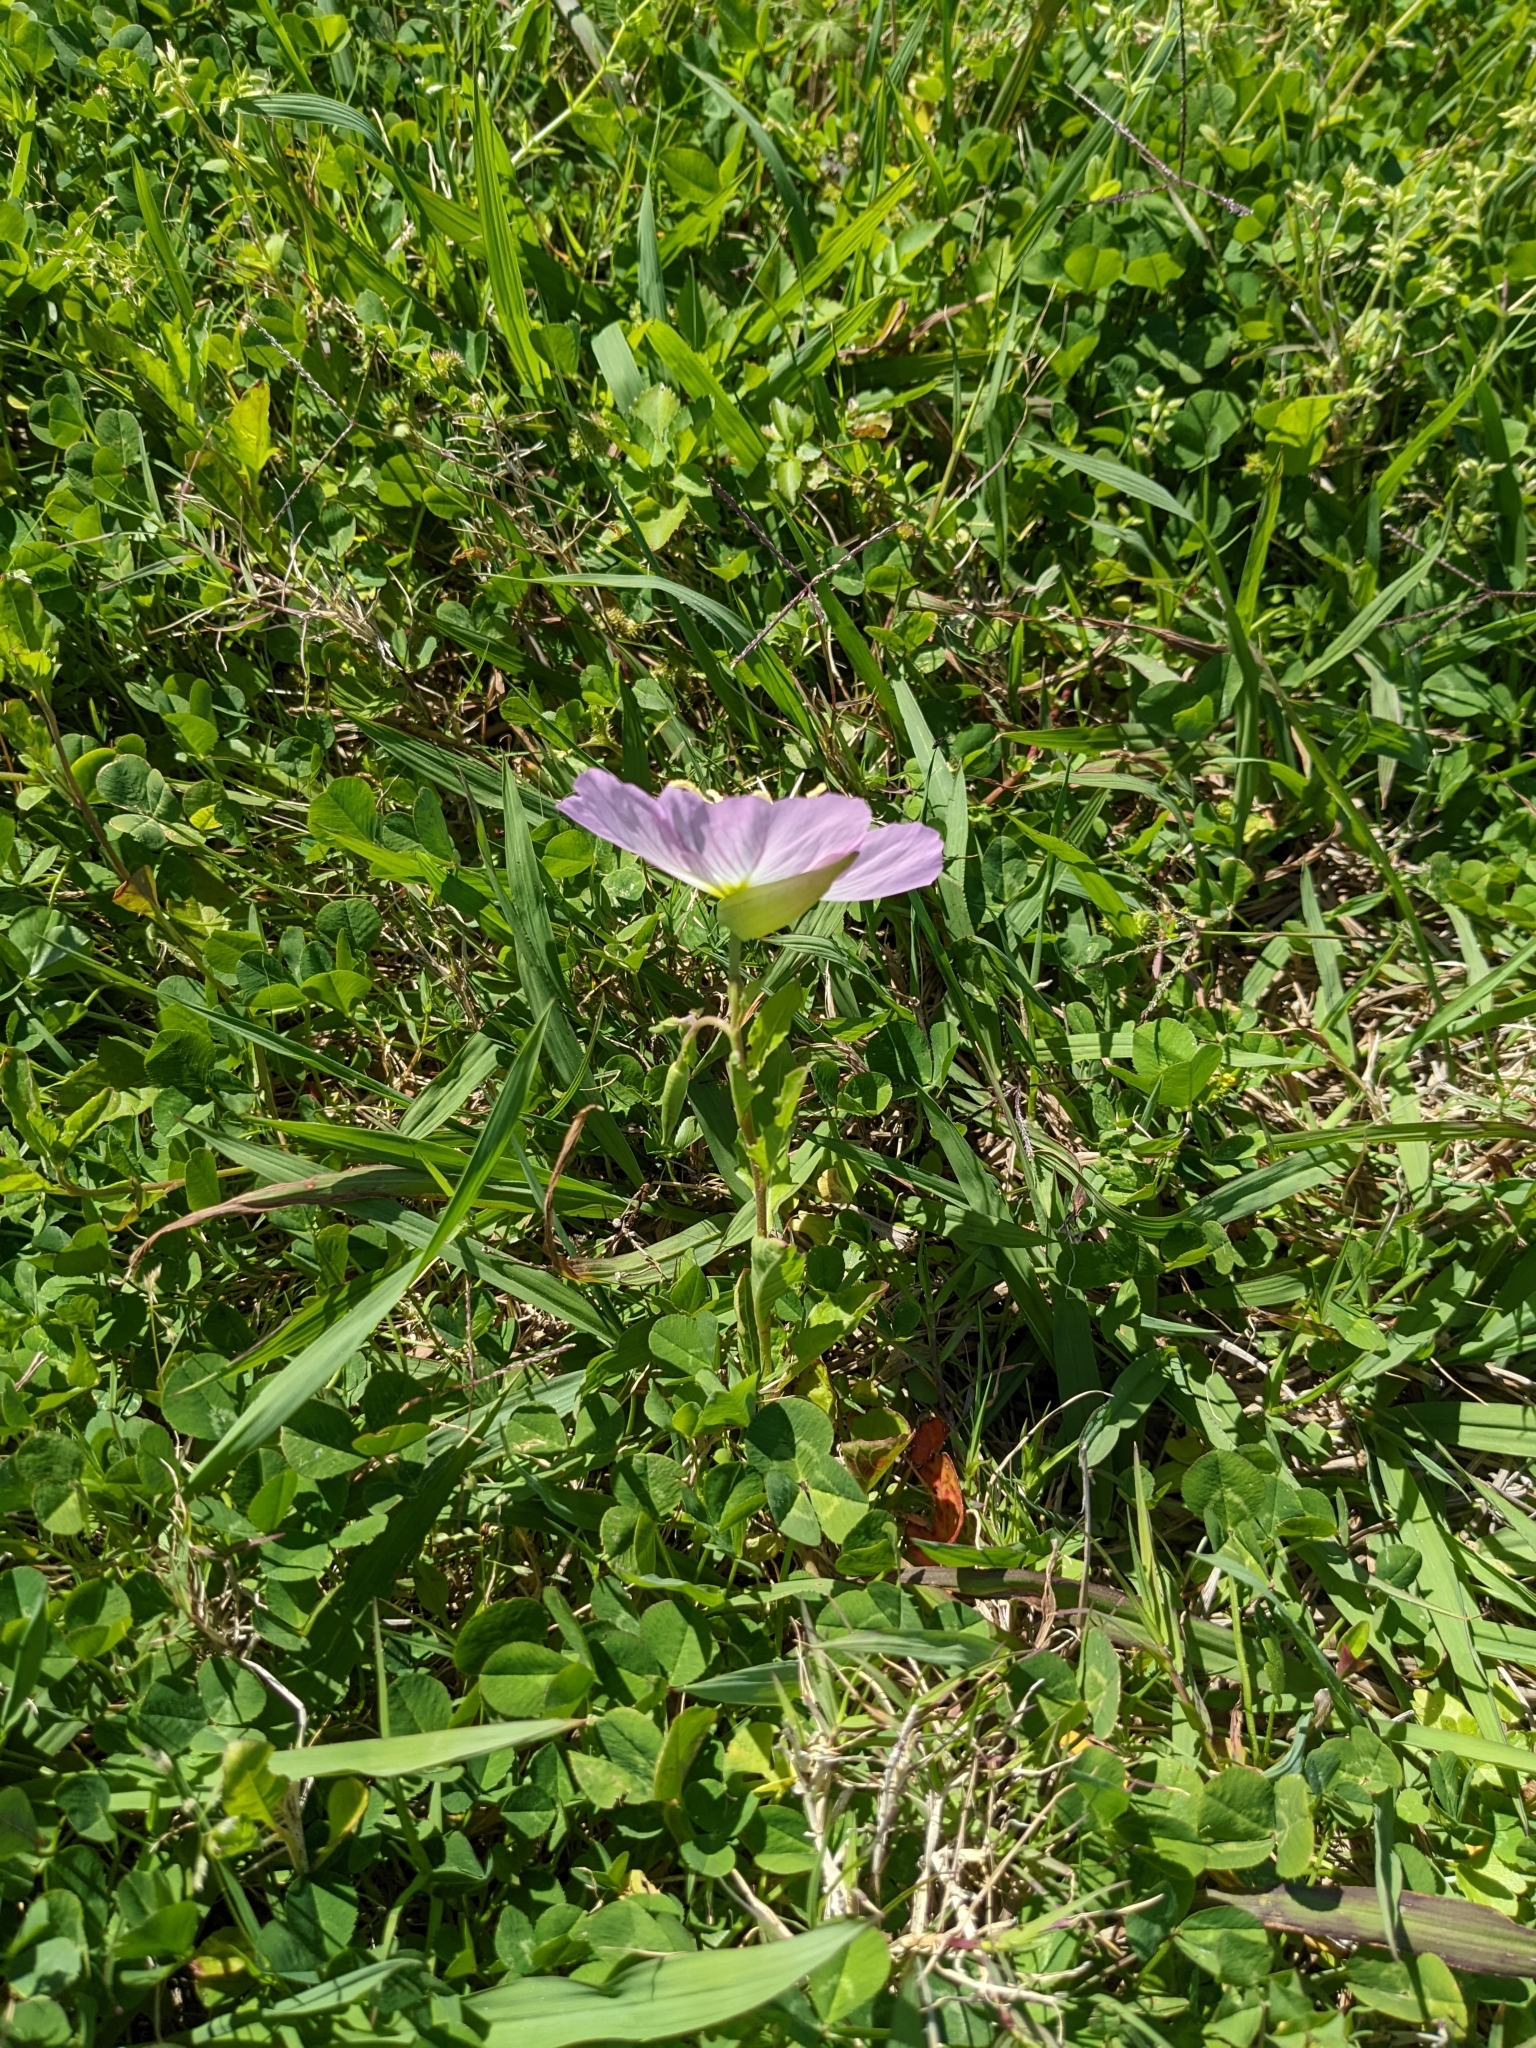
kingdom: Plantae
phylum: Tracheophyta
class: Magnoliopsida
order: Myrtales
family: Onagraceae
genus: Oenothera
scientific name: Oenothera speciosa
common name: White evening-primrose
